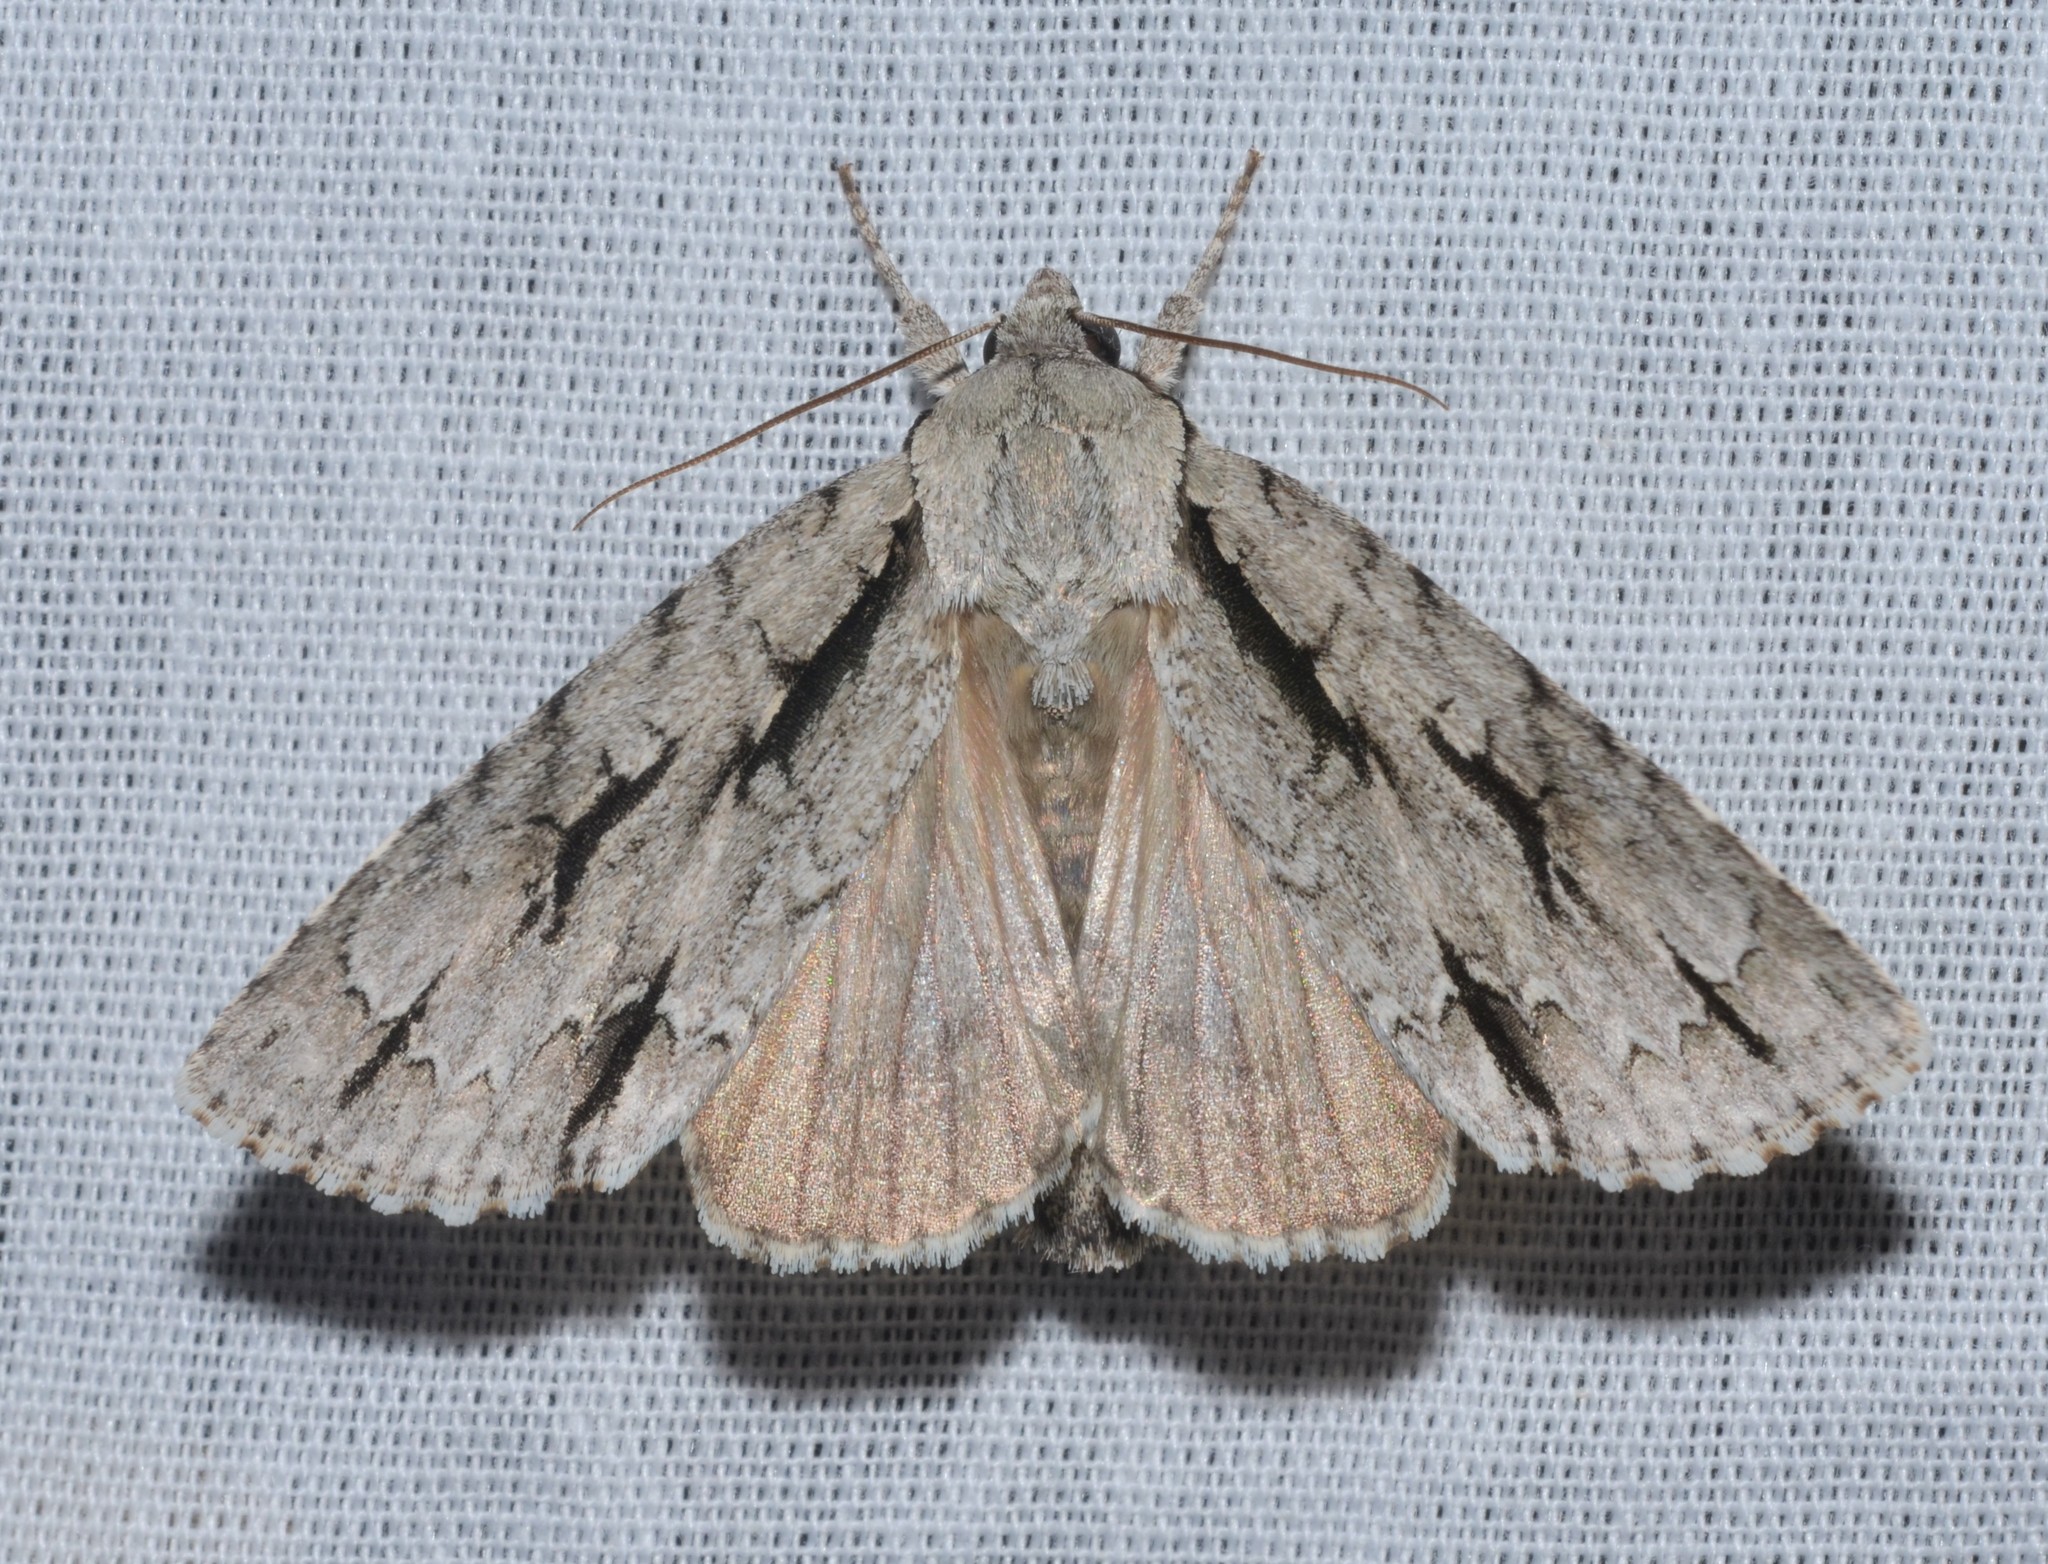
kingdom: Animalia
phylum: Arthropoda
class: Insecta
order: Lepidoptera
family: Noctuidae
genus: Acronicta
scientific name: Acronicta lobeliae
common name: Greater oak dagger
